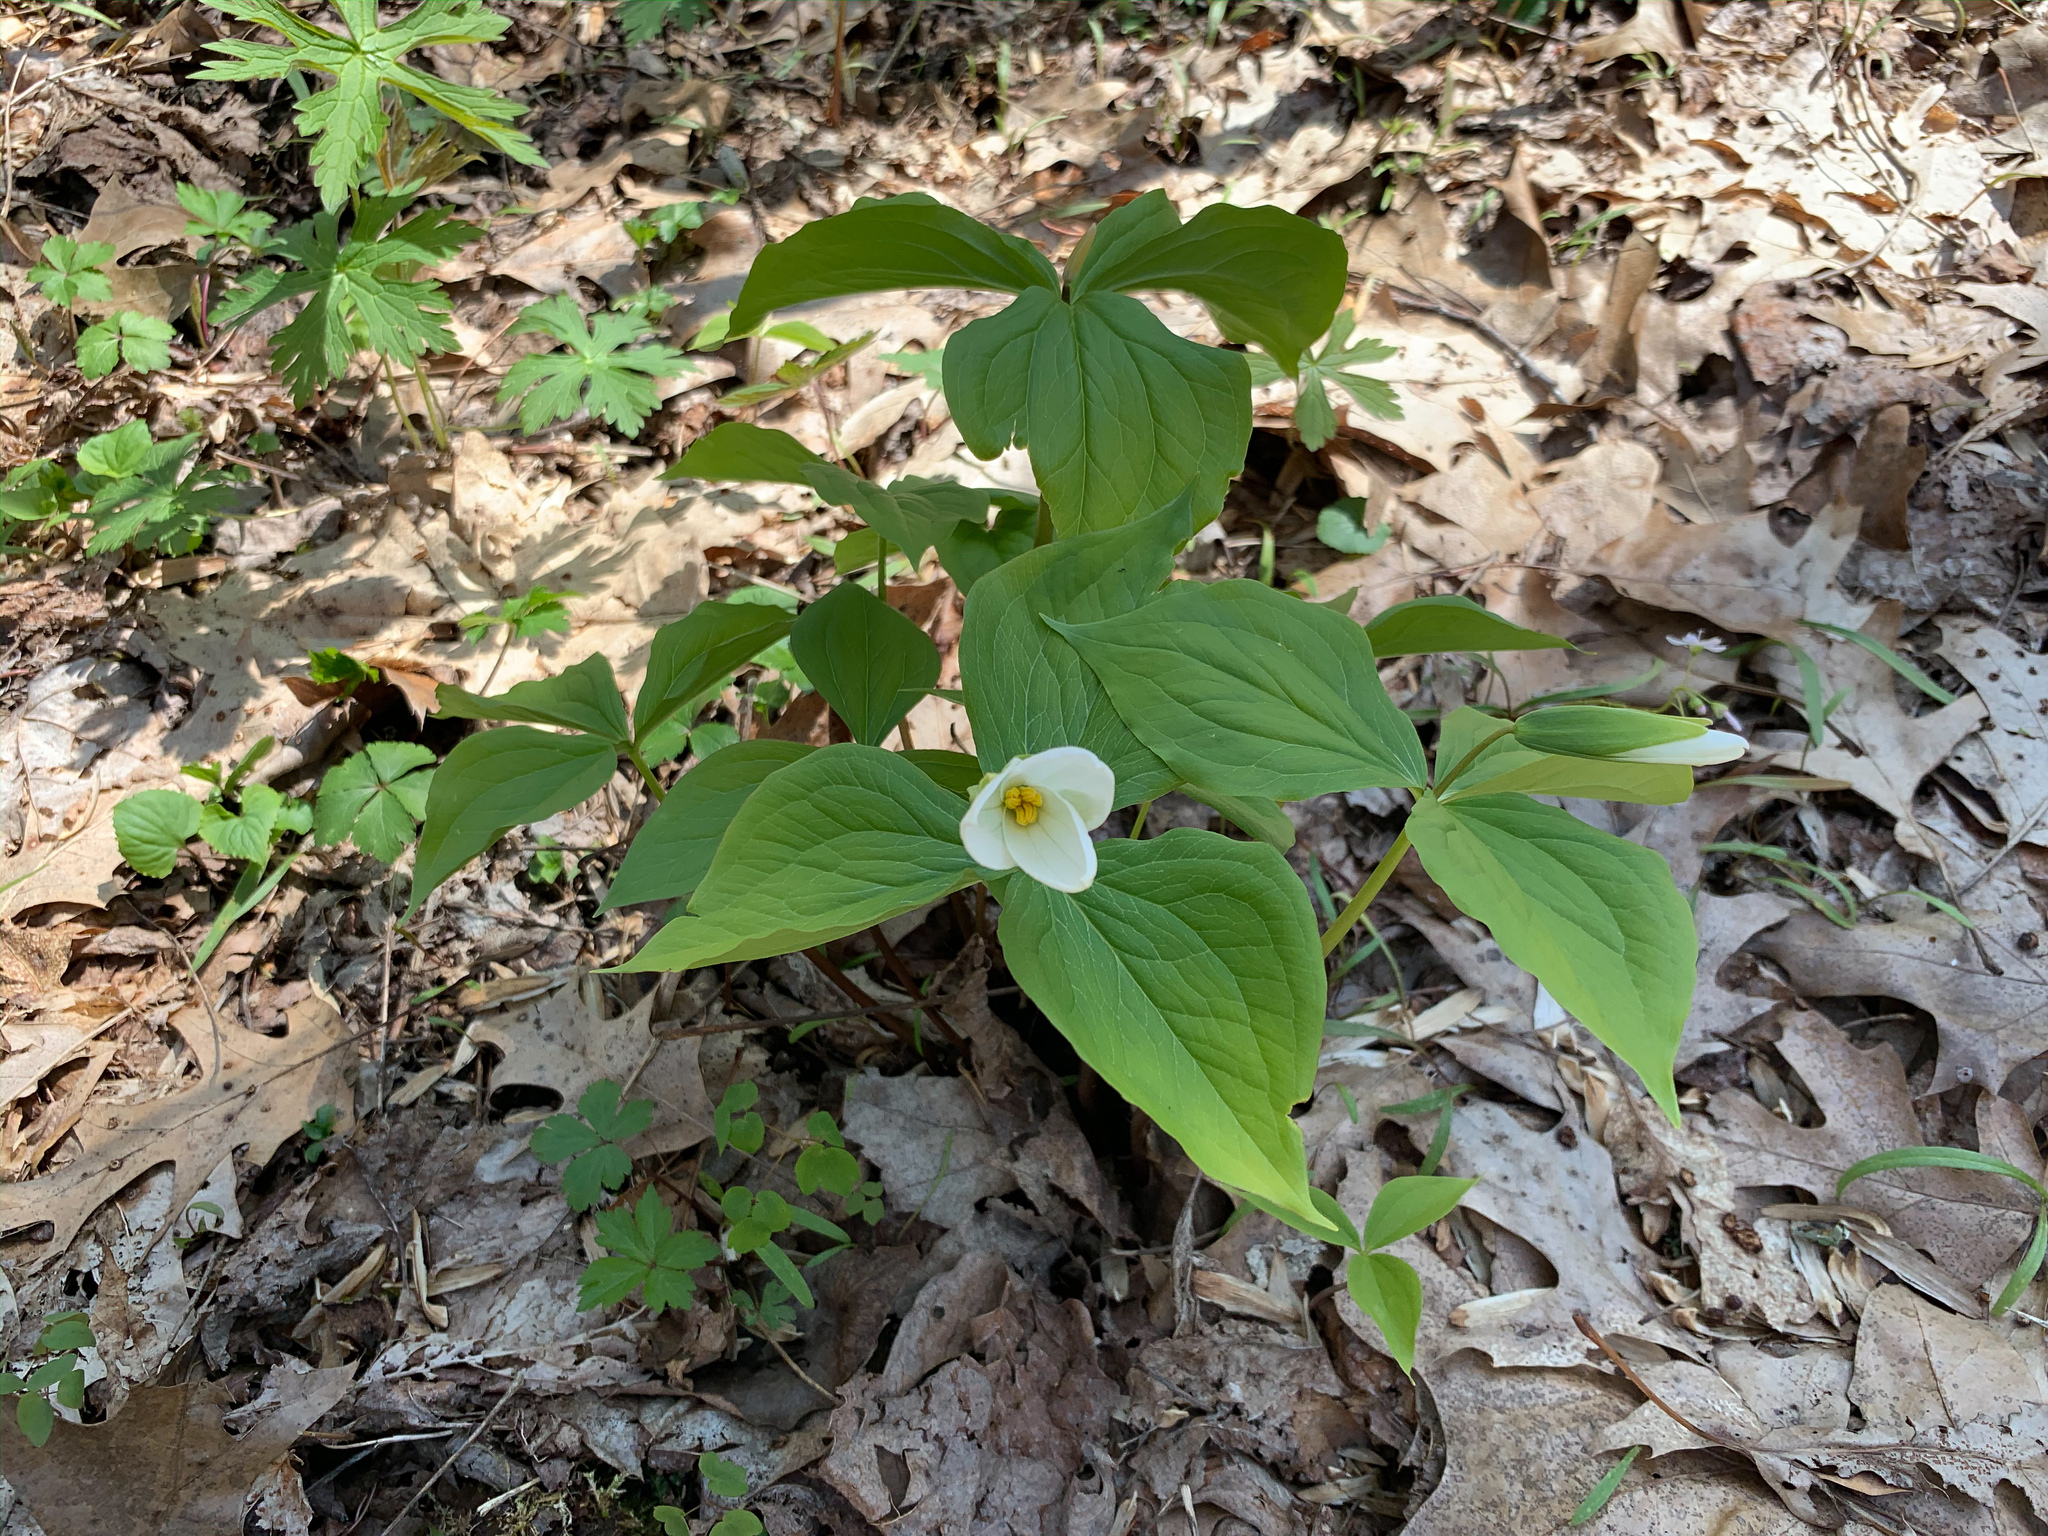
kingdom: Plantae
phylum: Tracheophyta
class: Liliopsida
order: Liliales
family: Melanthiaceae
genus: Trillium
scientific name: Trillium grandiflorum
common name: Great white trillium
